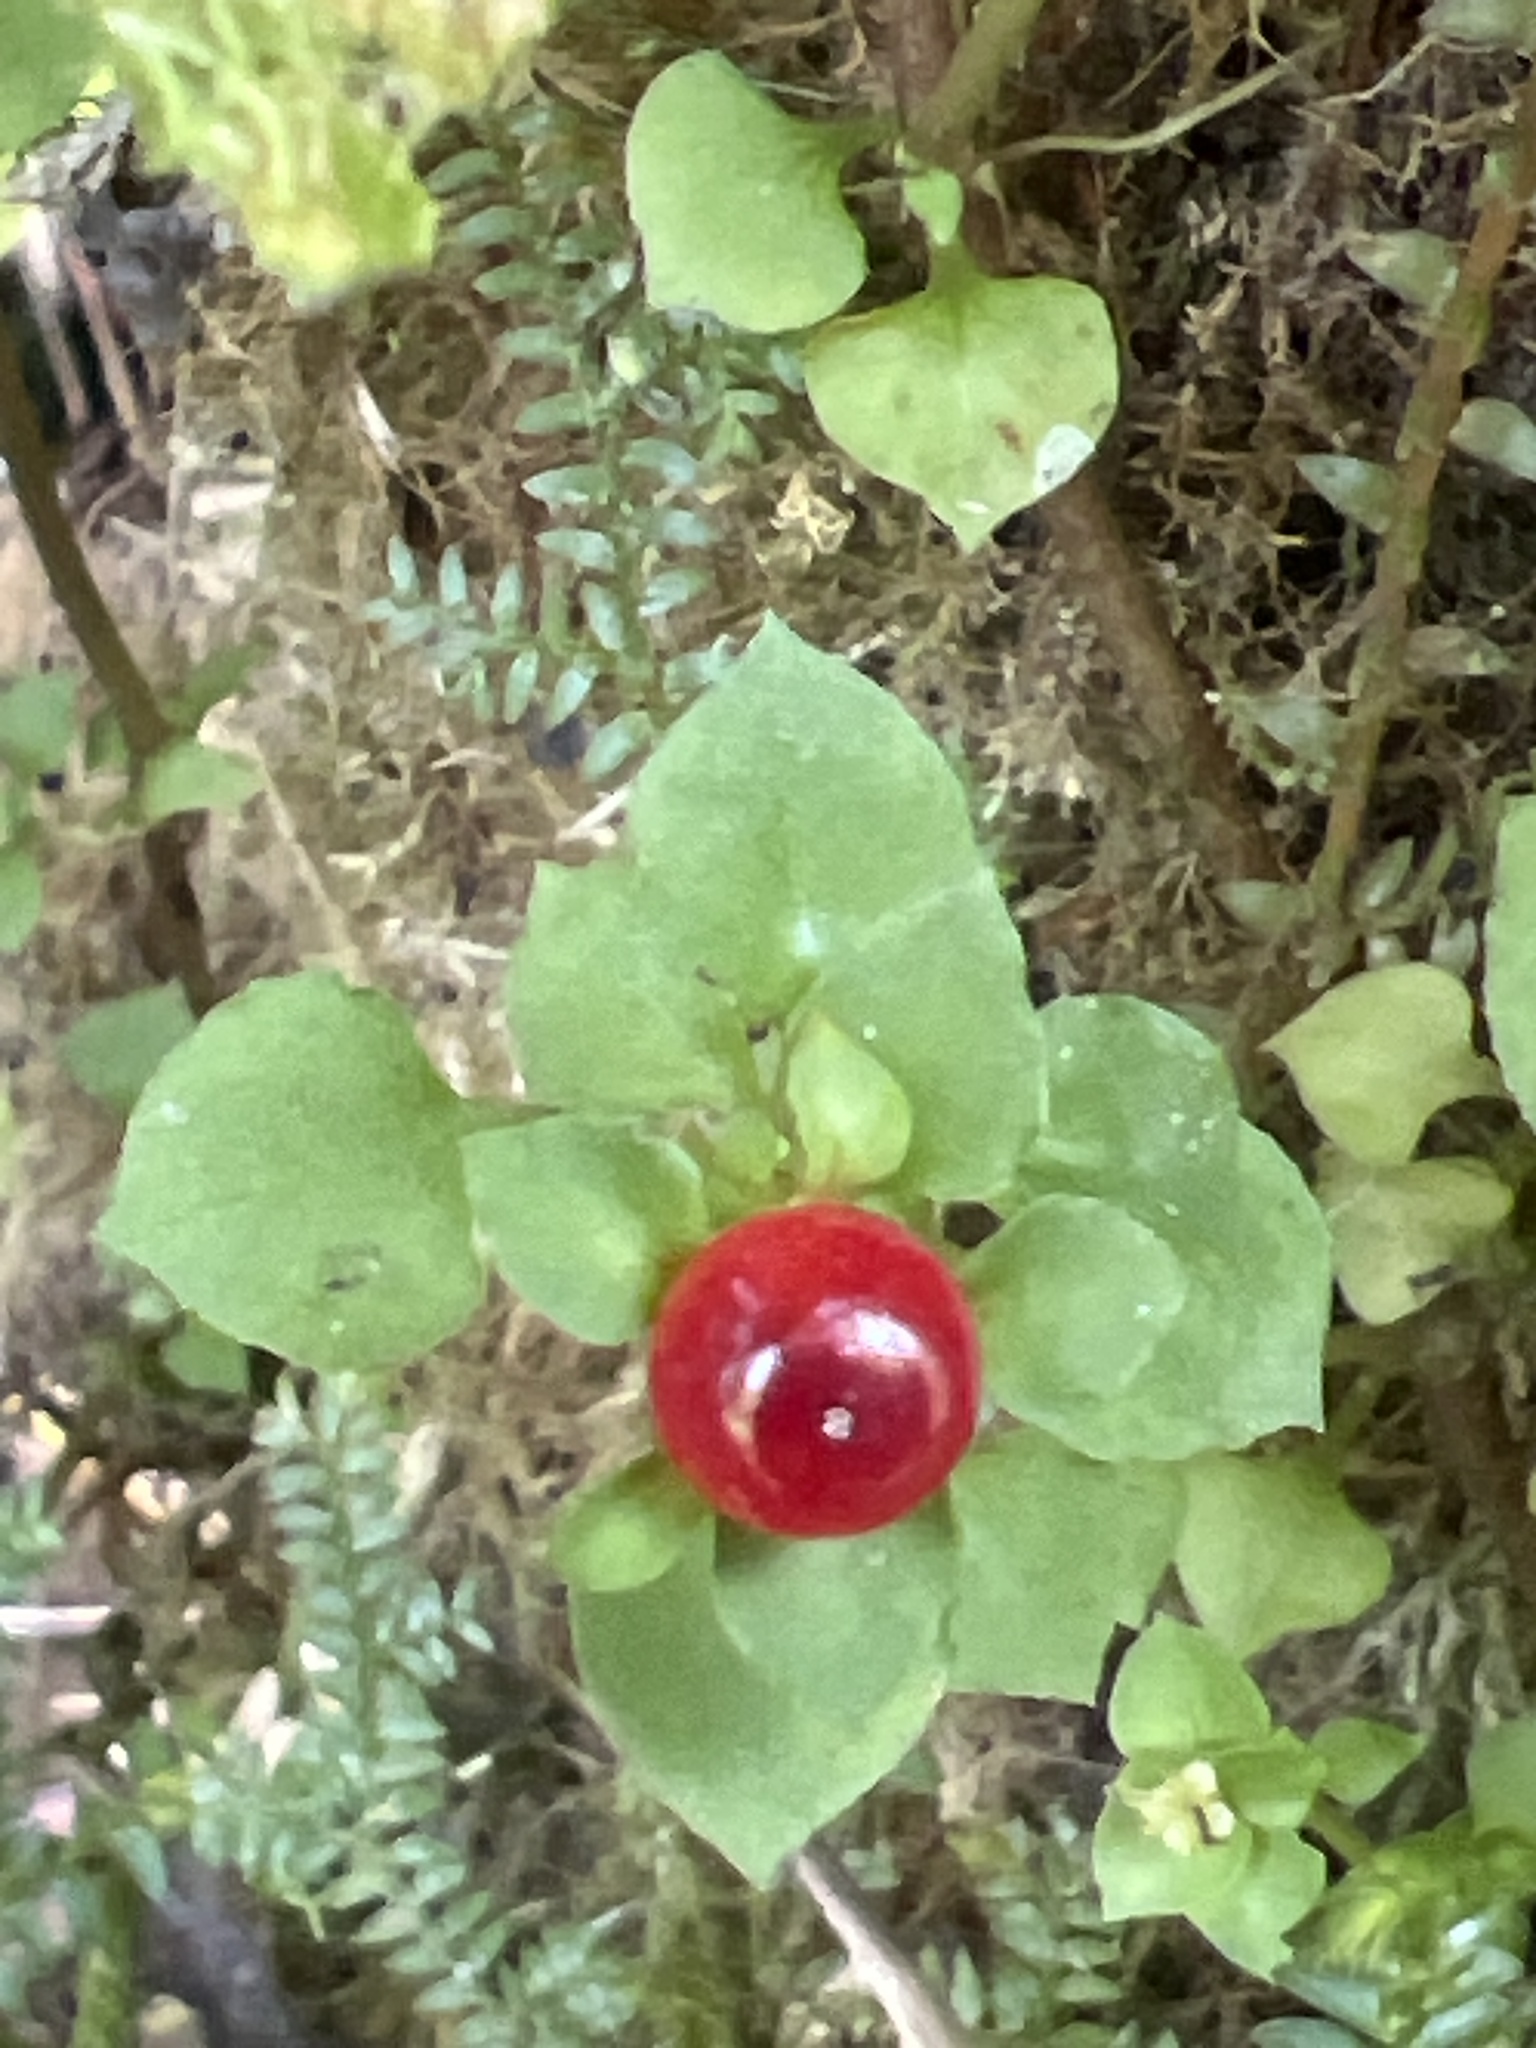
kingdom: Plantae
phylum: Tracheophyta
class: Magnoliopsida
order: Gentianales
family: Rubiaceae
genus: Nertera
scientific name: Nertera granadensis
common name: Beadplant
